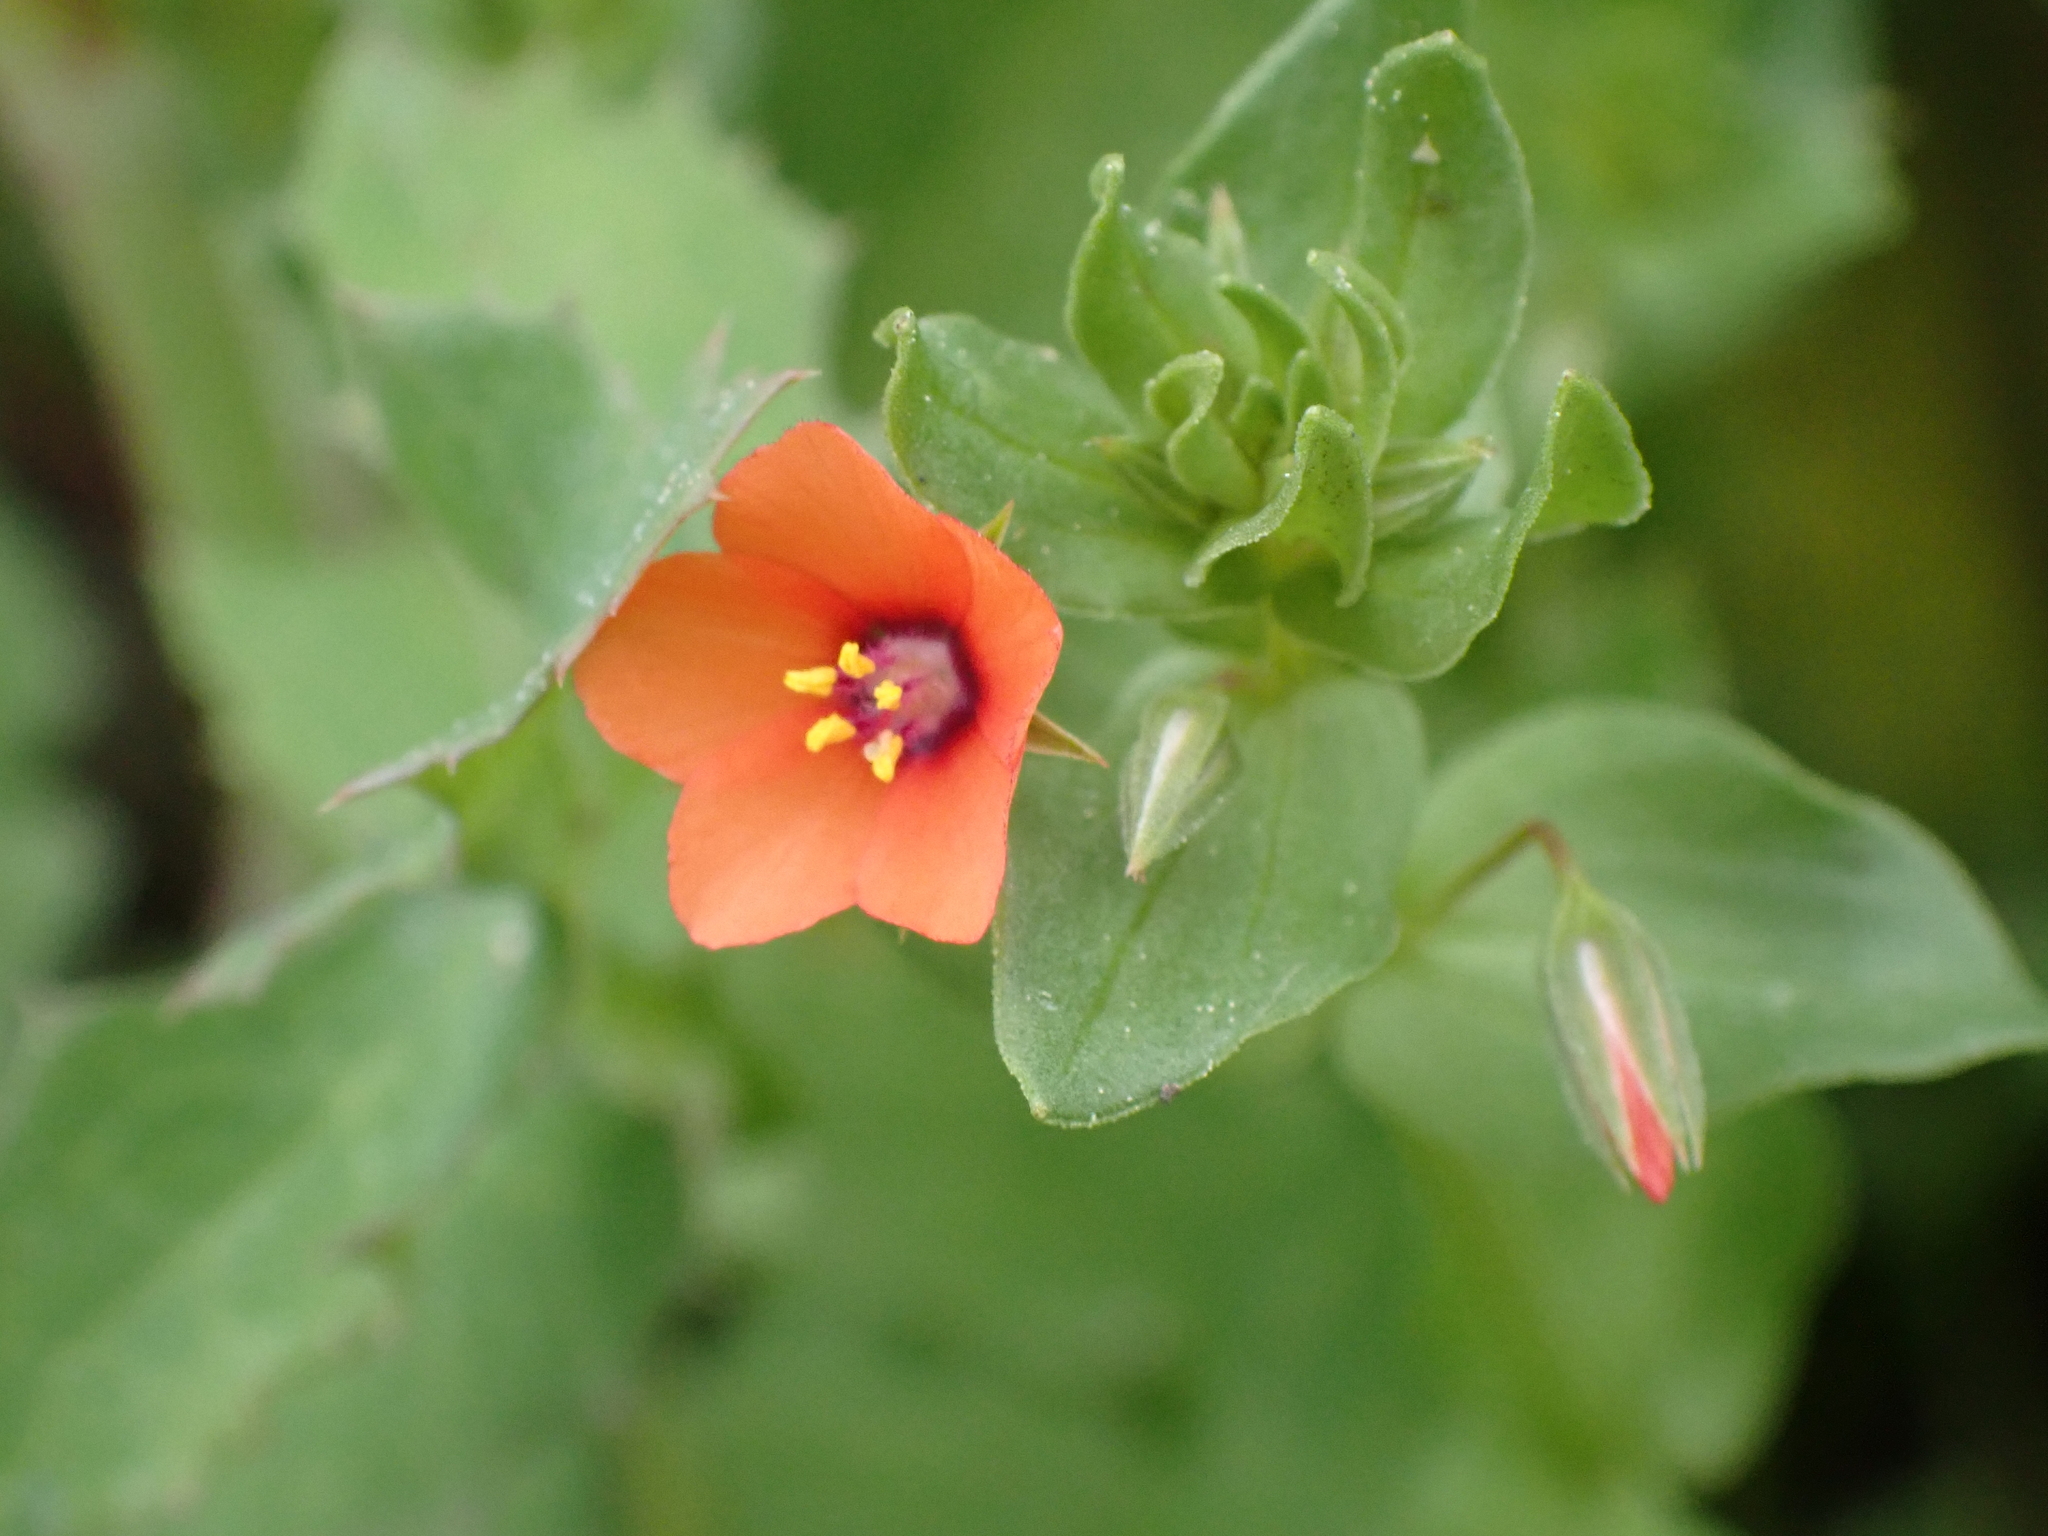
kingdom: Plantae
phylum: Tracheophyta
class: Magnoliopsida
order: Ericales
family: Primulaceae
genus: Lysimachia
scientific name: Lysimachia arvensis
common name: Scarlet pimpernel
